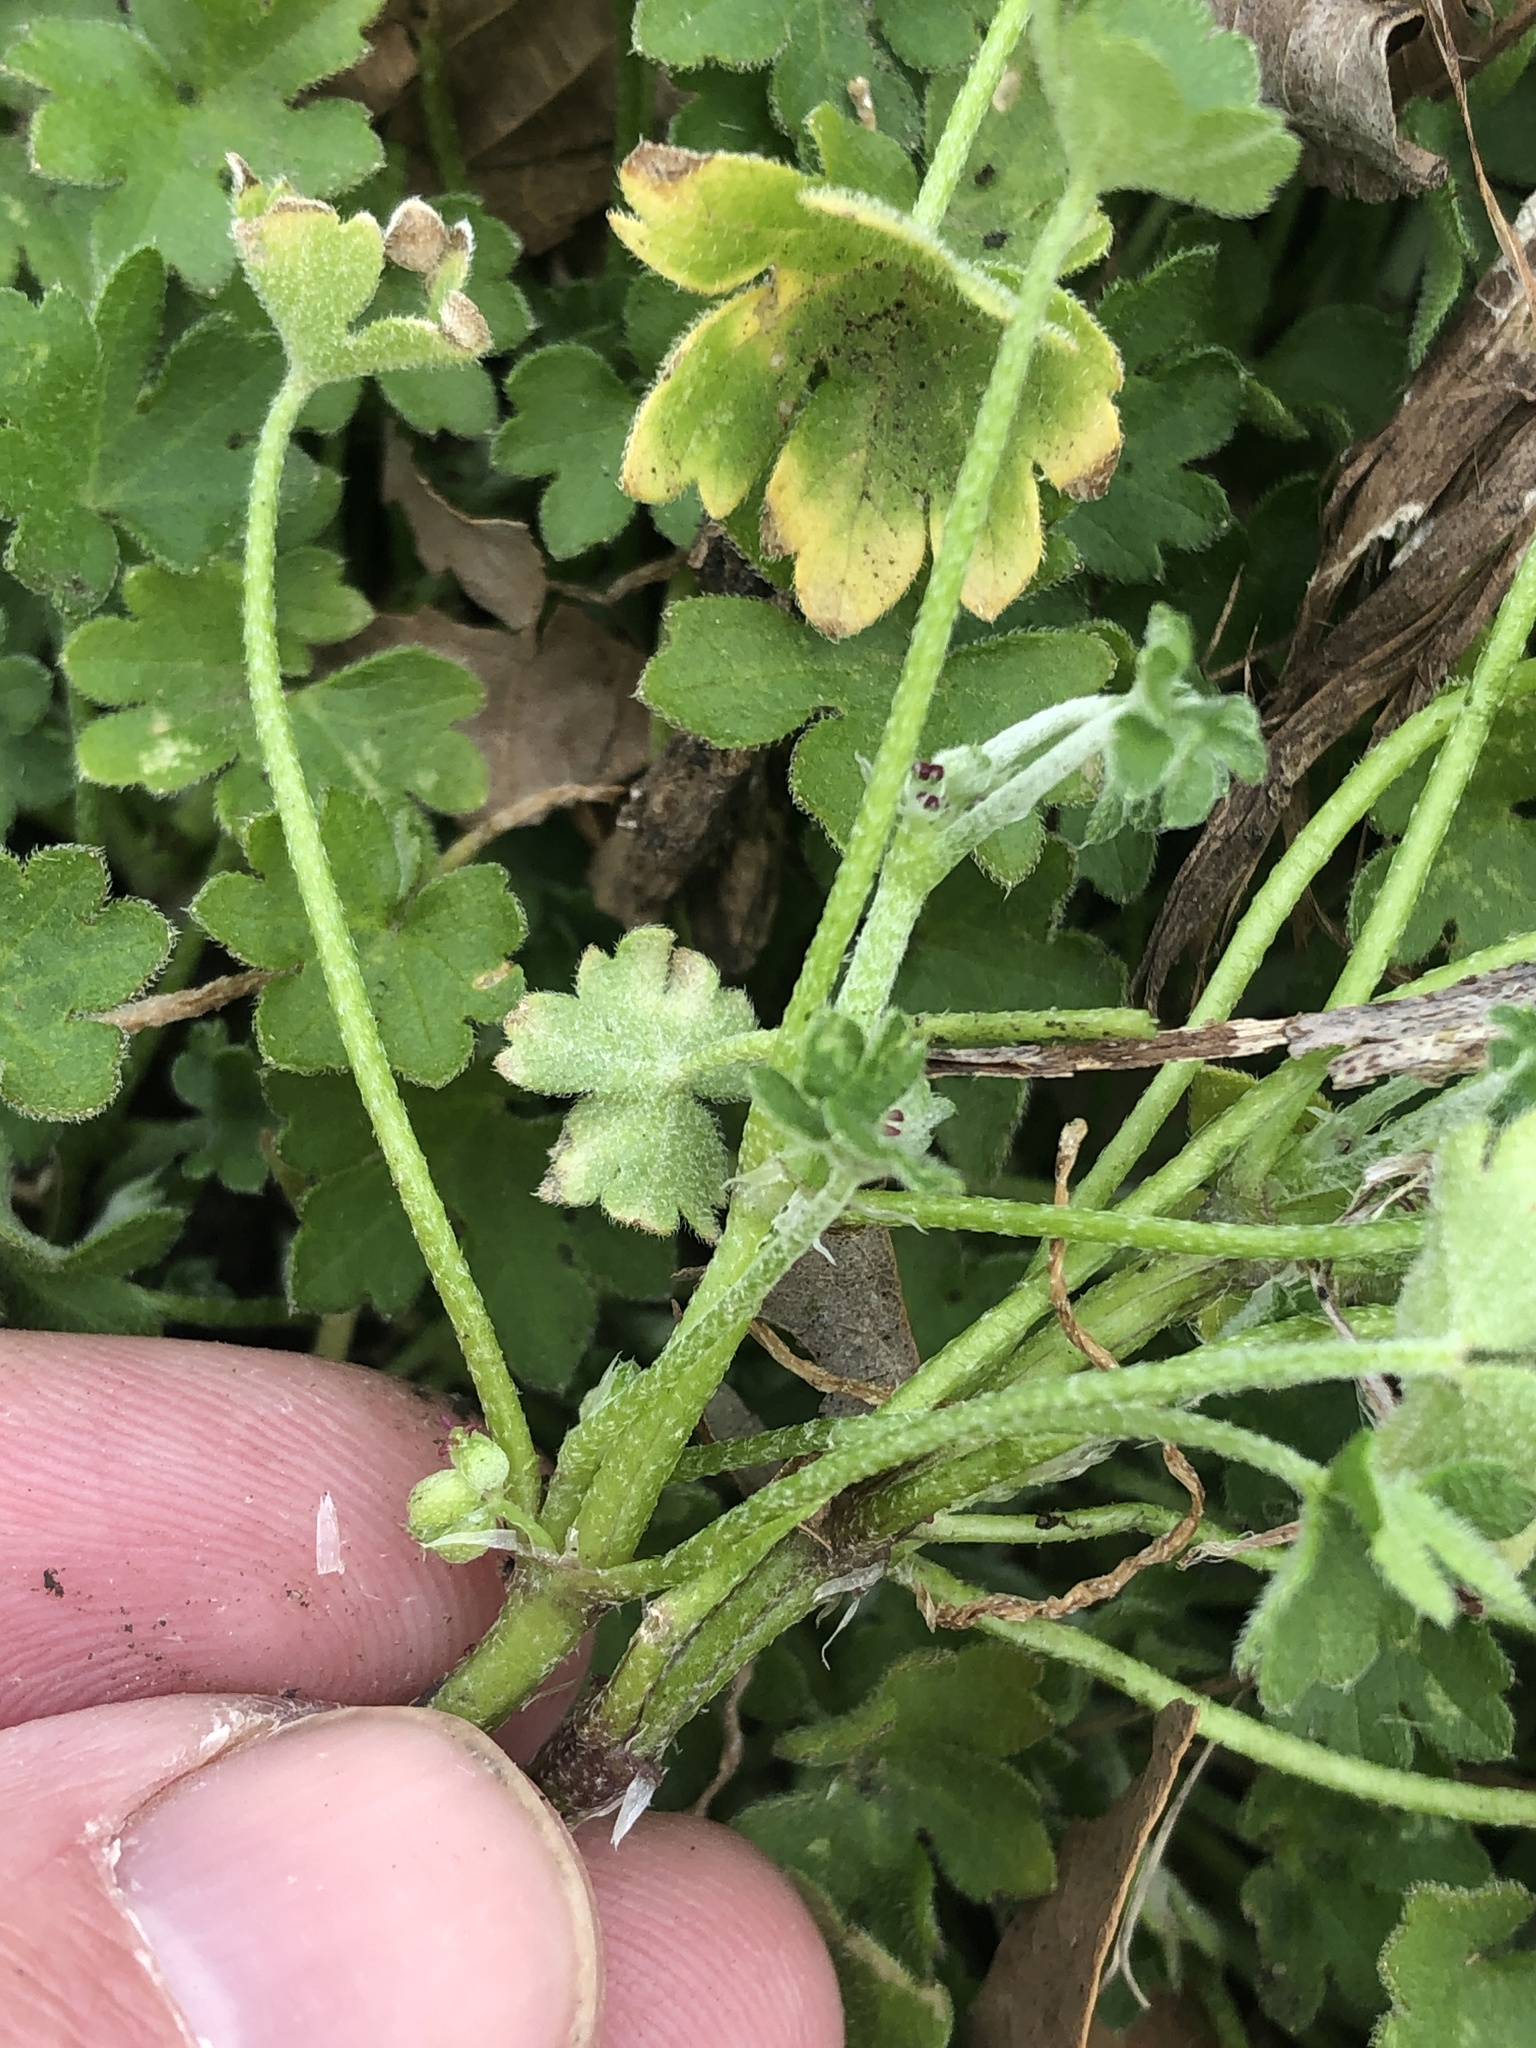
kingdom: Plantae
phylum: Tracheophyta
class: Magnoliopsida
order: Apiales
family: Apiaceae
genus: Bowlesia
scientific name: Bowlesia incana
